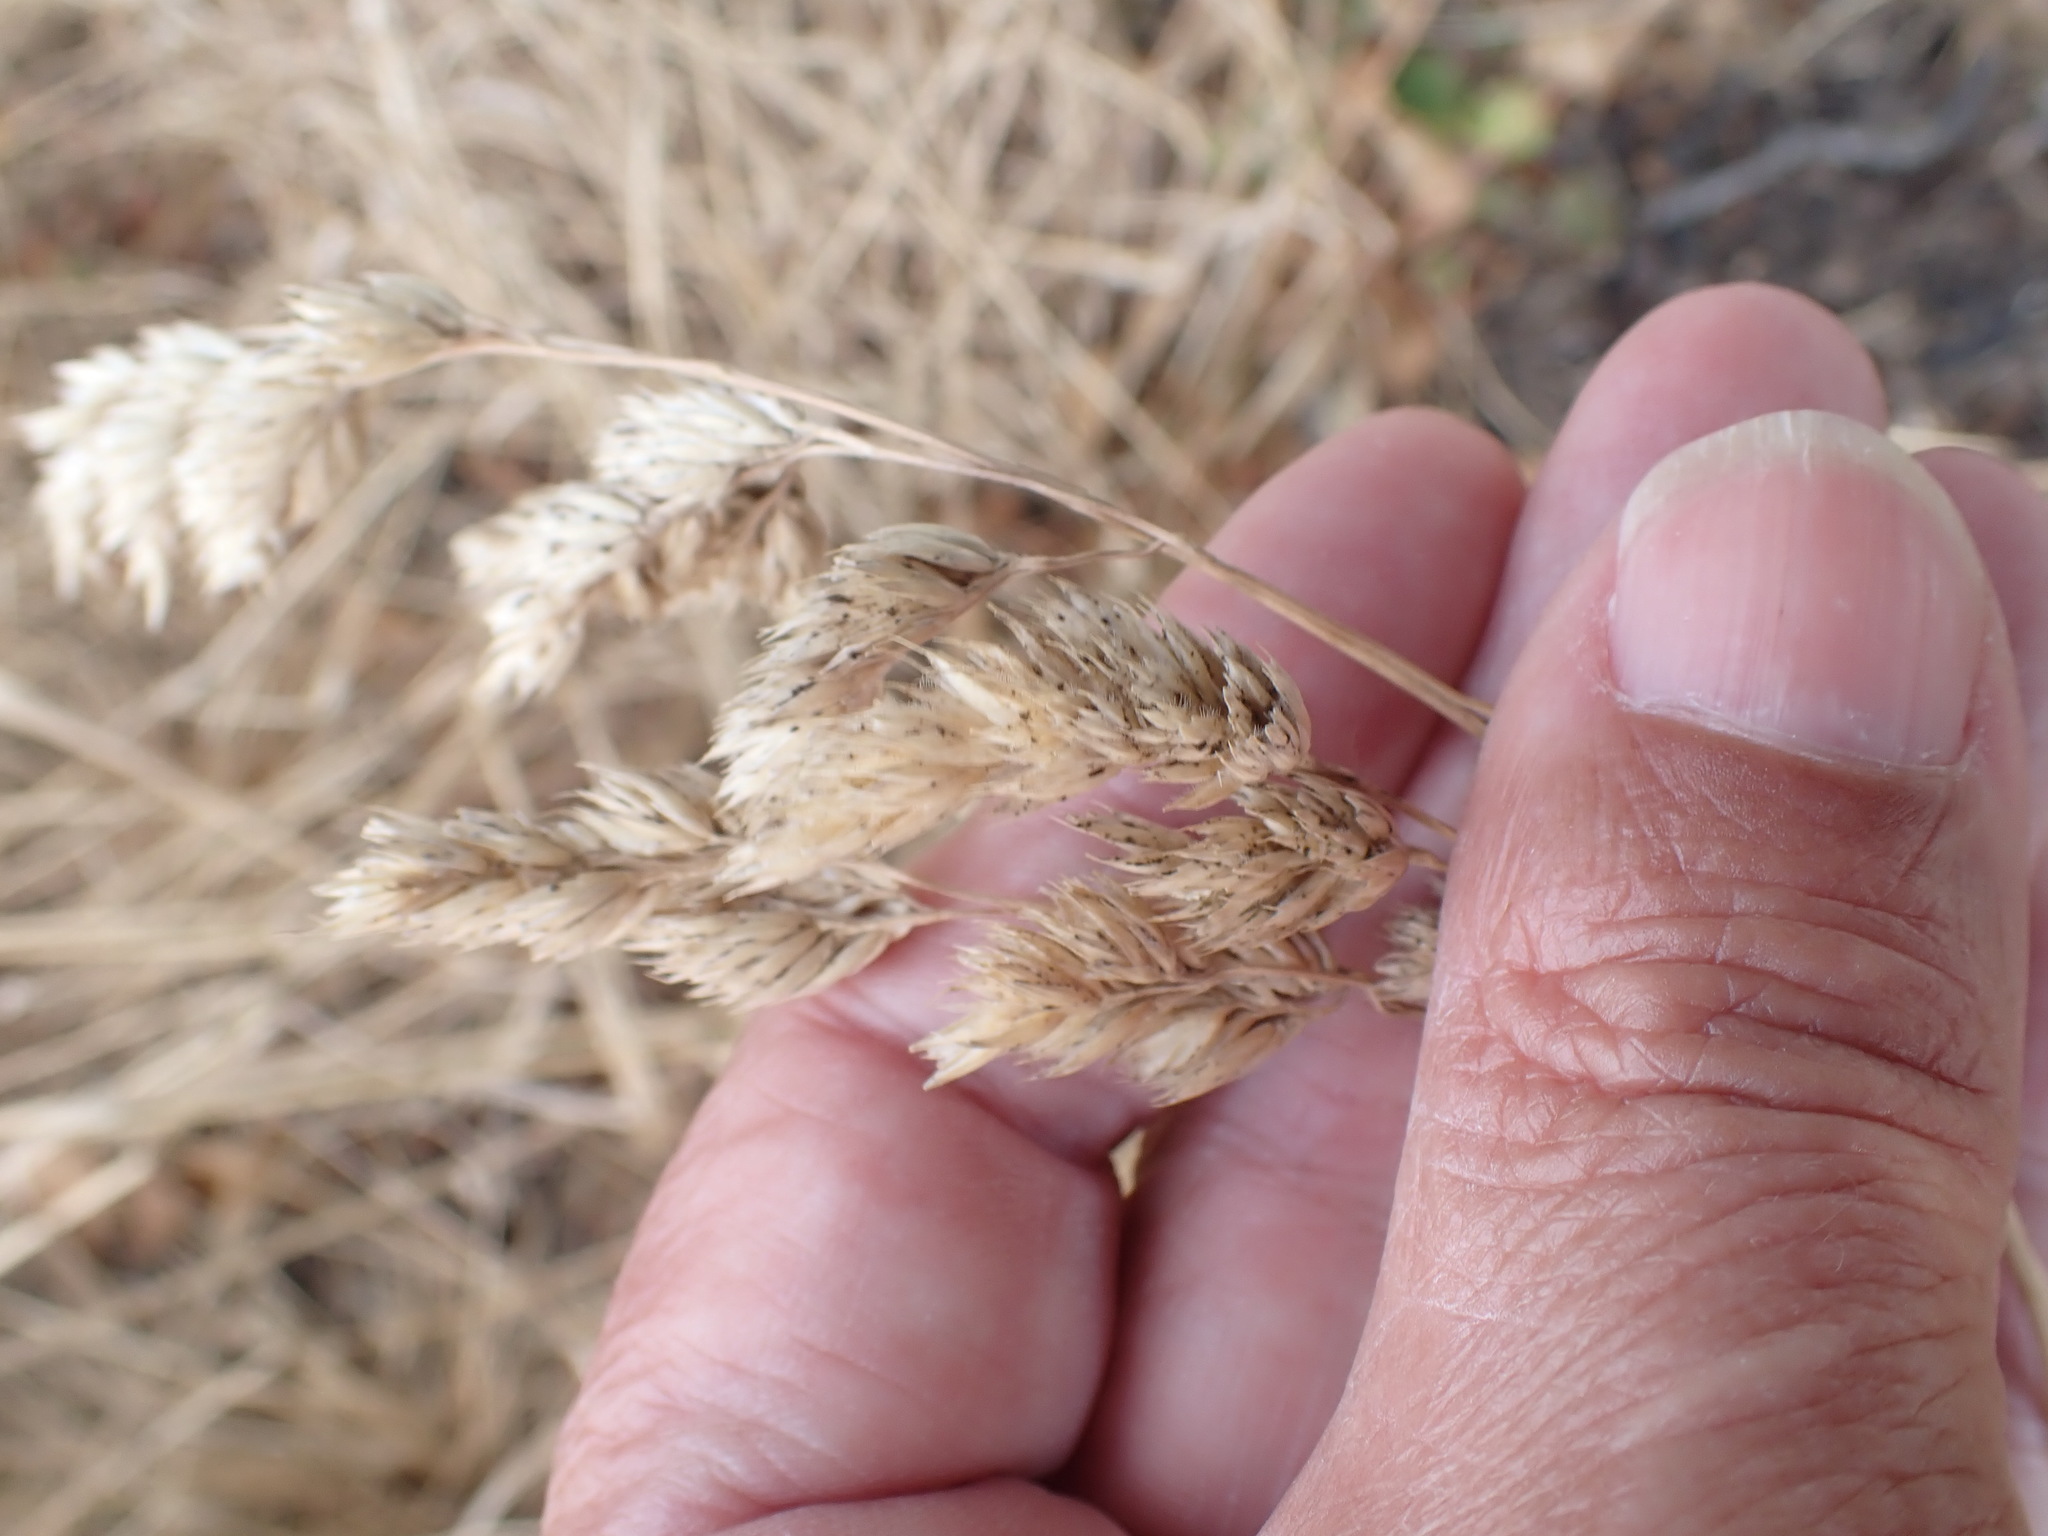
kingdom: Plantae
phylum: Tracheophyta
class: Liliopsida
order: Poales
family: Poaceae
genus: Dactylis
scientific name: Dactylis glomerata
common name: Orchardgrass
